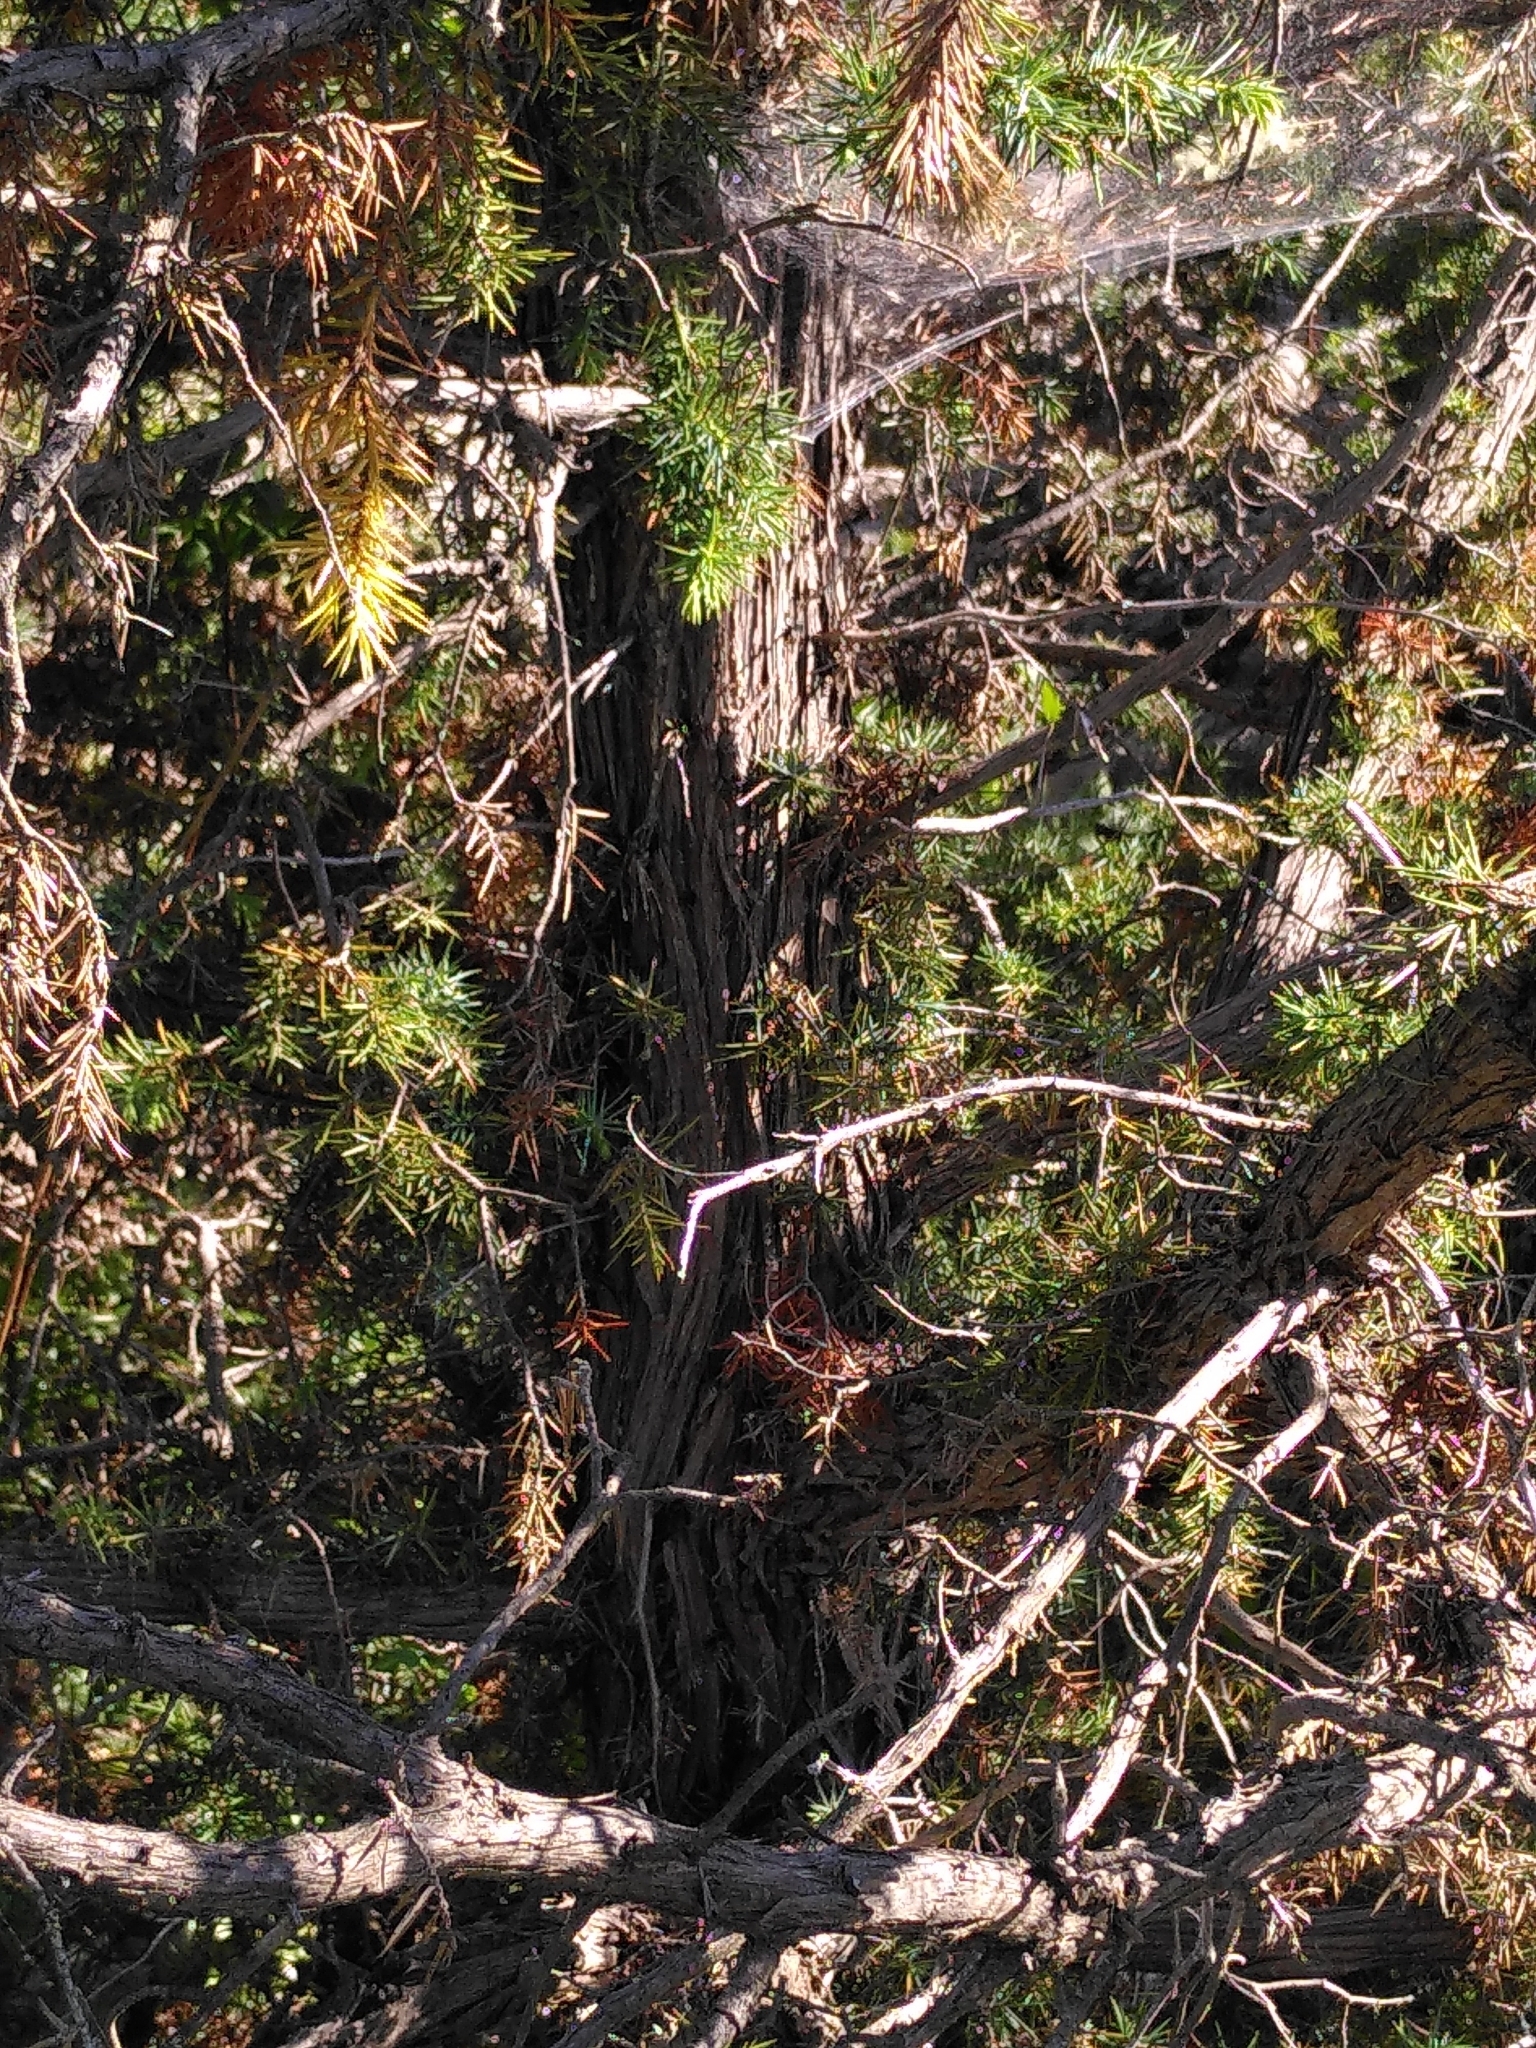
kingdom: Plantae
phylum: Tracheophyta
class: Pinopsida
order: Pinales
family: Cupressaceae
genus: Juniperus
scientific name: Juniperus communis
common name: Common juniper
